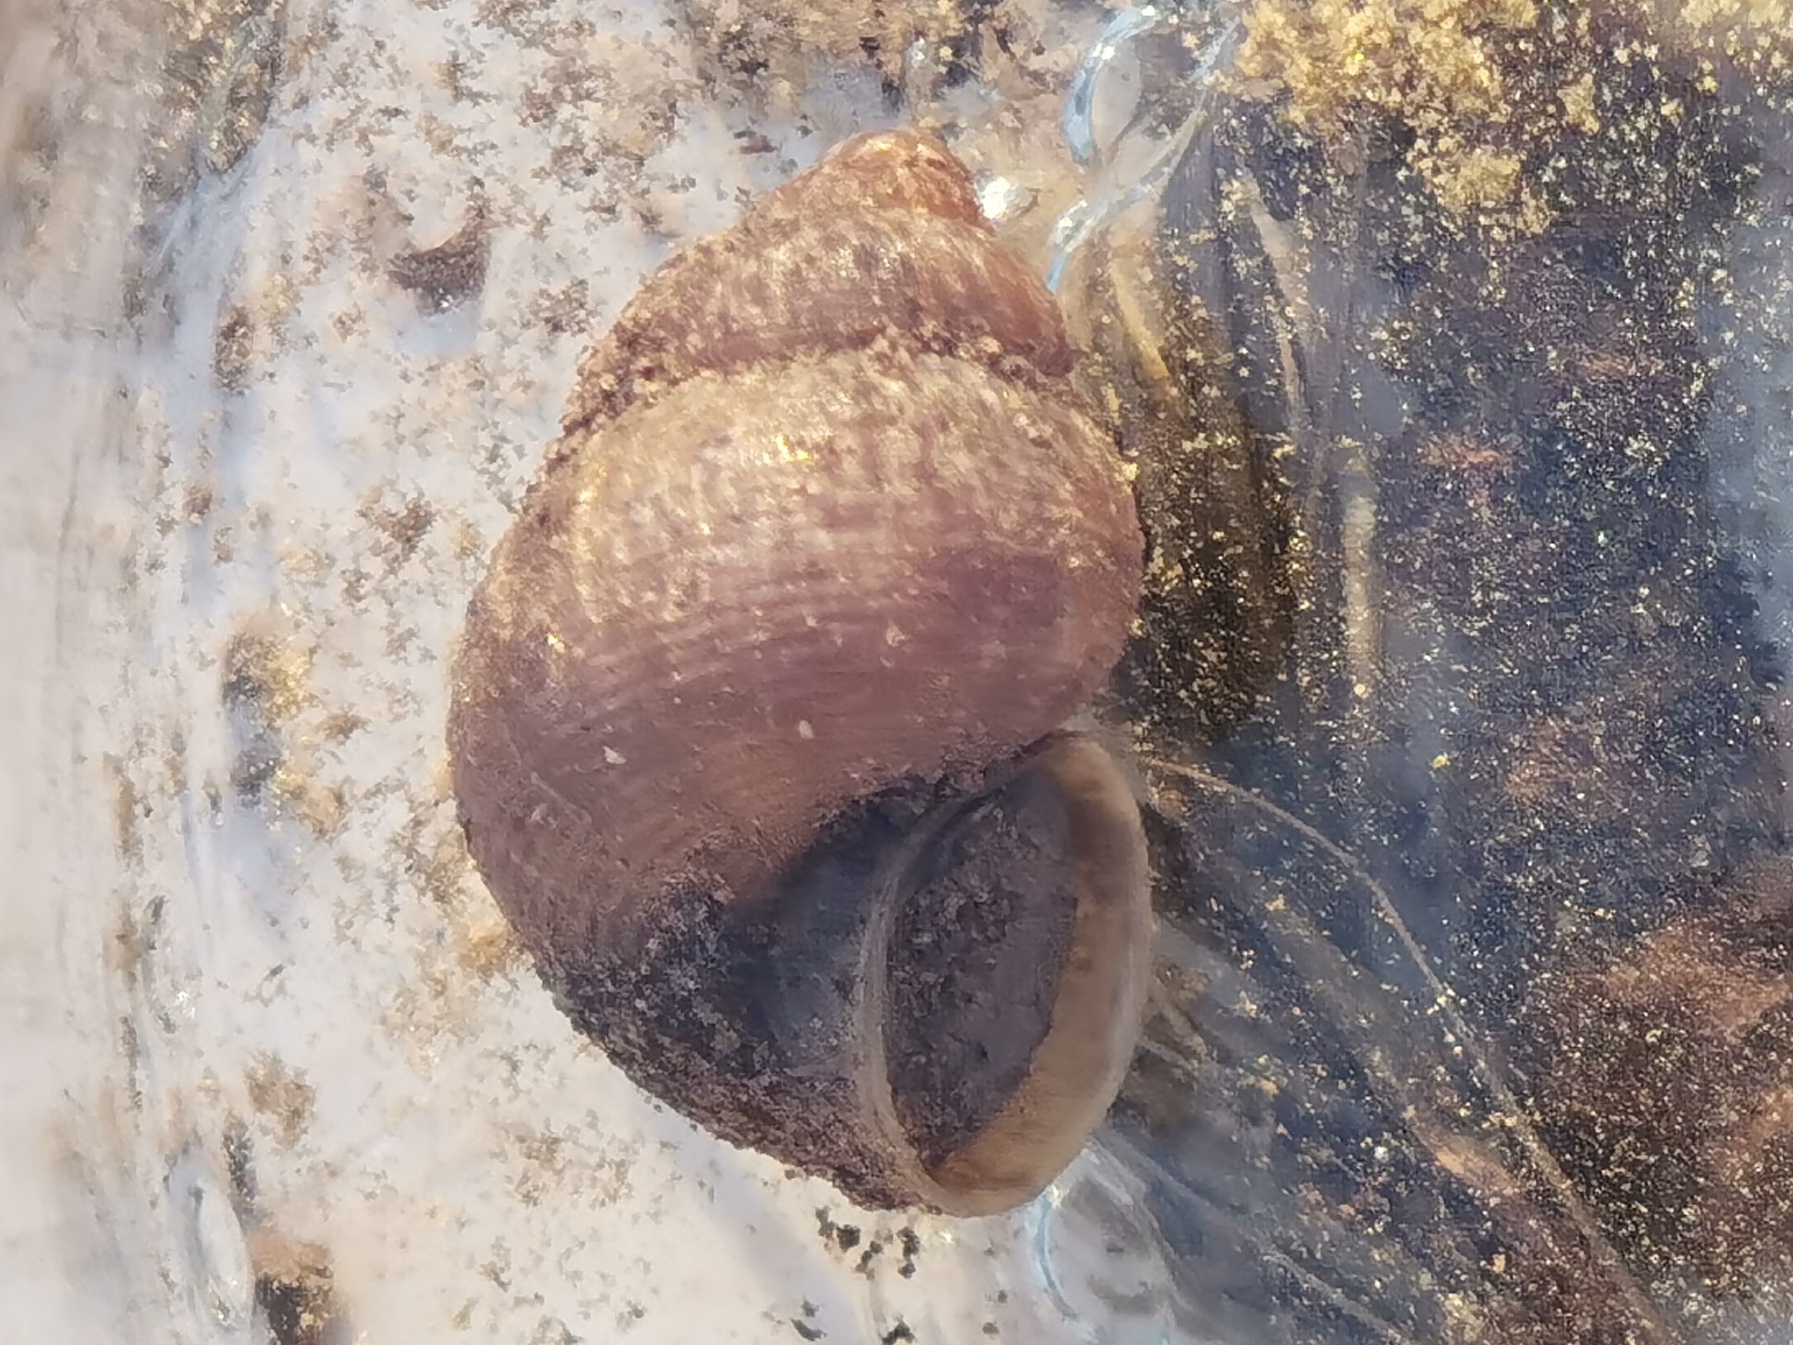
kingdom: Animalia
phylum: Mollusca
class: Gastropoda
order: Littorinimorpha
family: Pomatiidae
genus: Pomatias
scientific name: Pomatias elegans
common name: Red-mouthed snail
